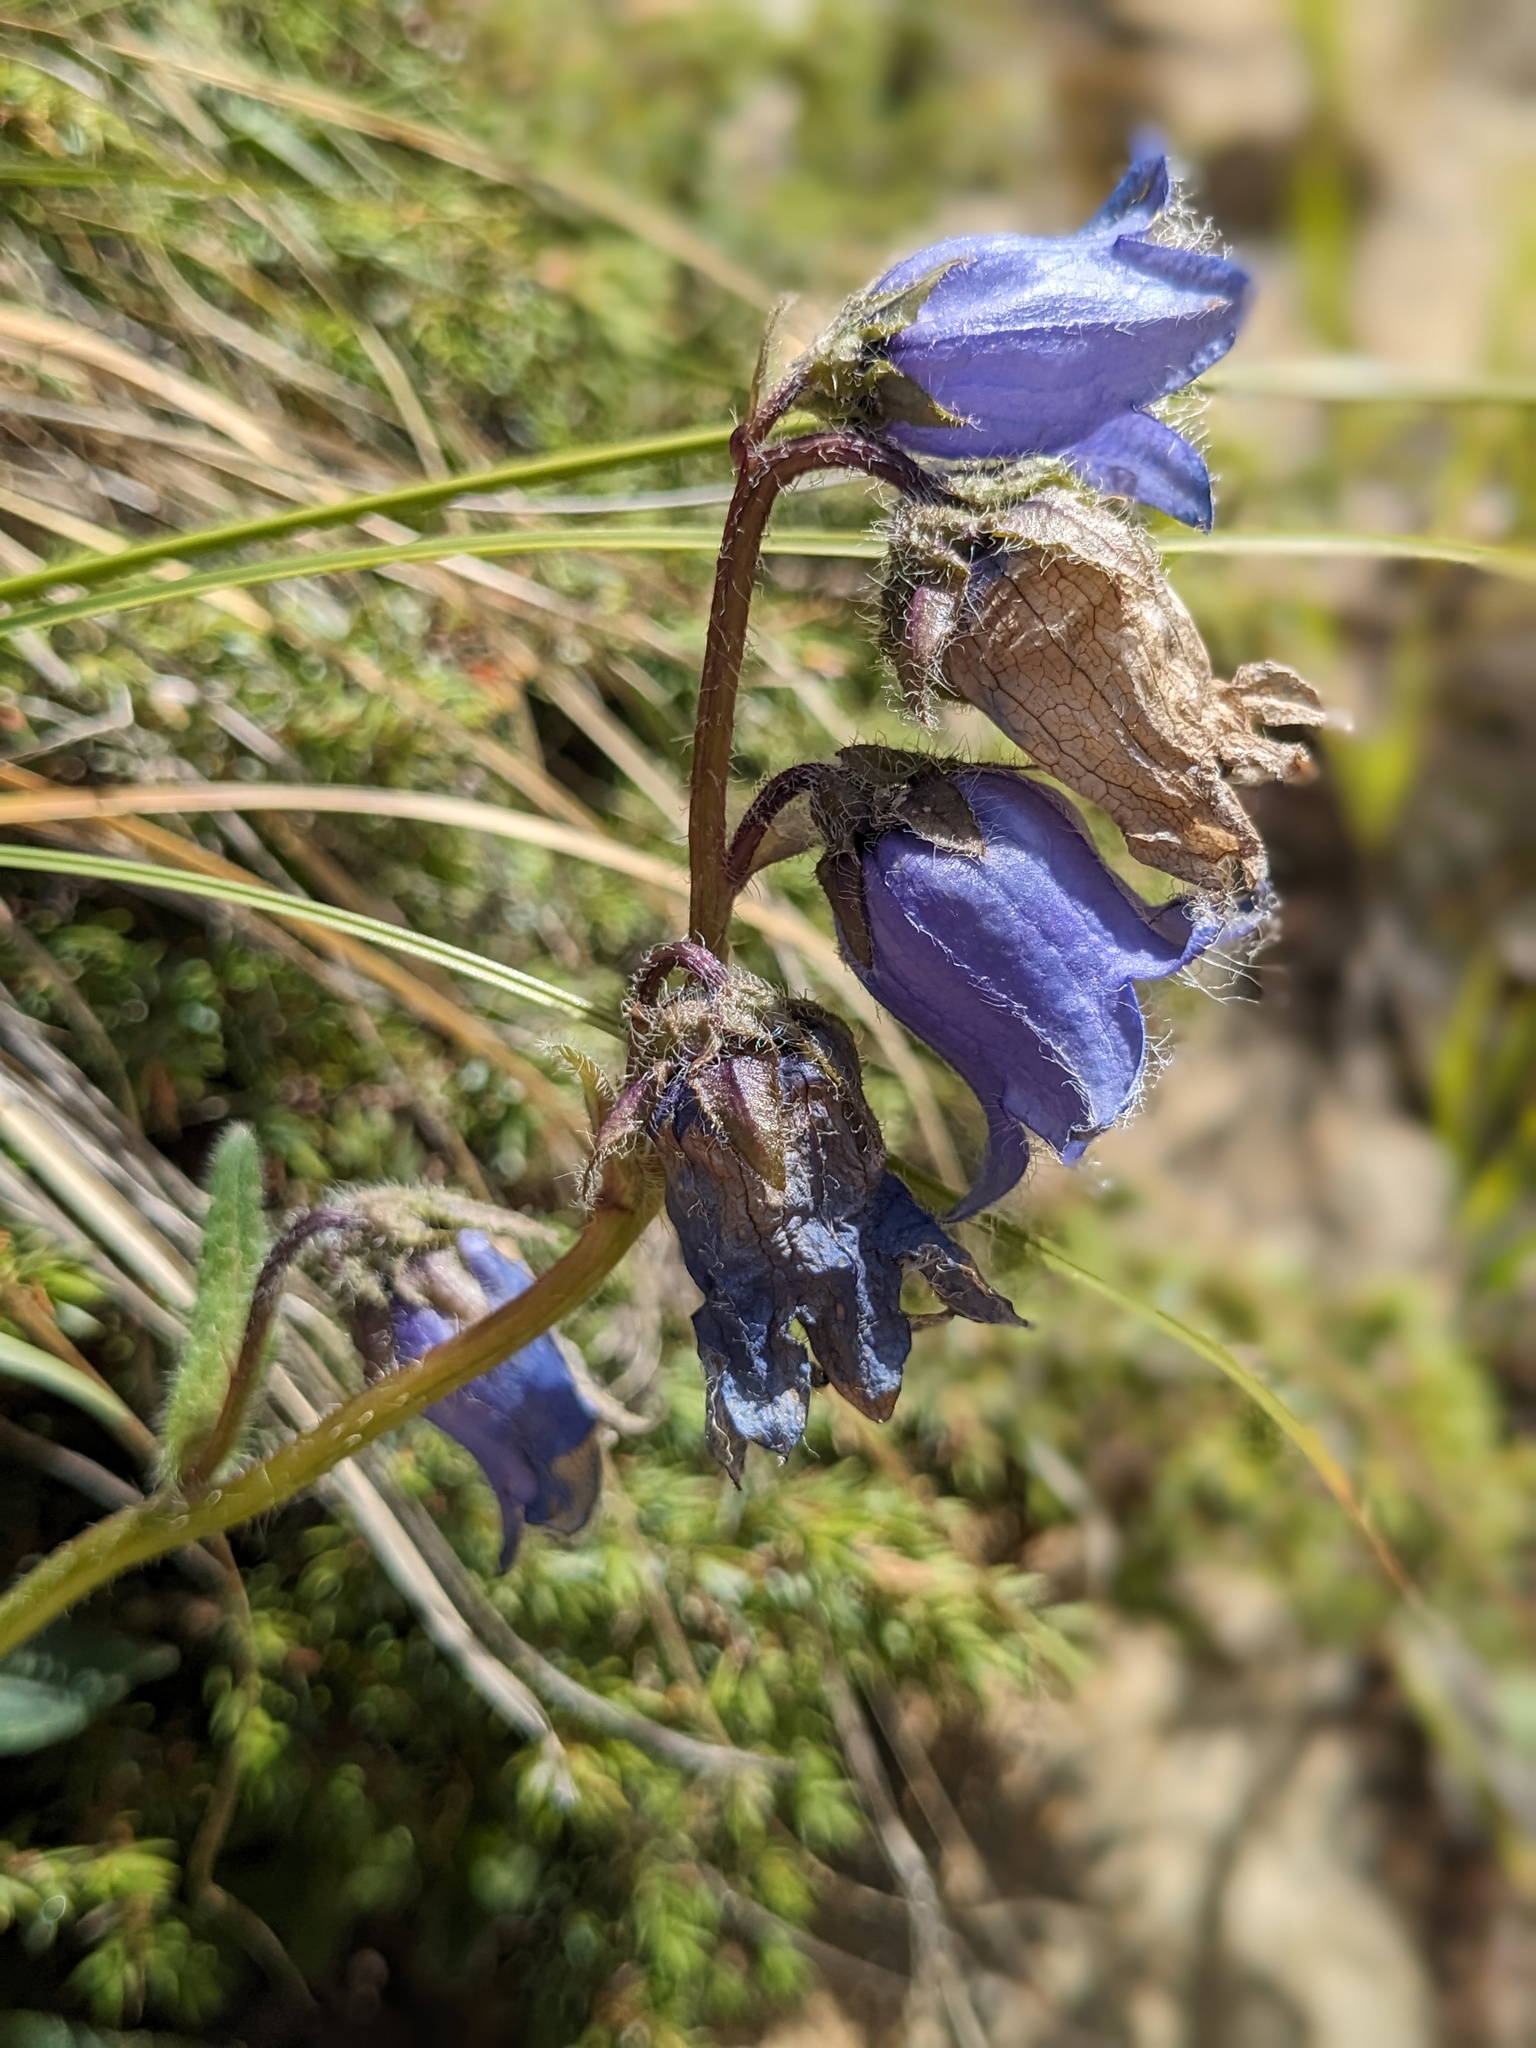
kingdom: Plantae
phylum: Tracheophyta
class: Magnoliopsida
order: Asterales
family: Campanulaceae
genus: Campanula
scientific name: Campanula barbata
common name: Bearded bellflower
